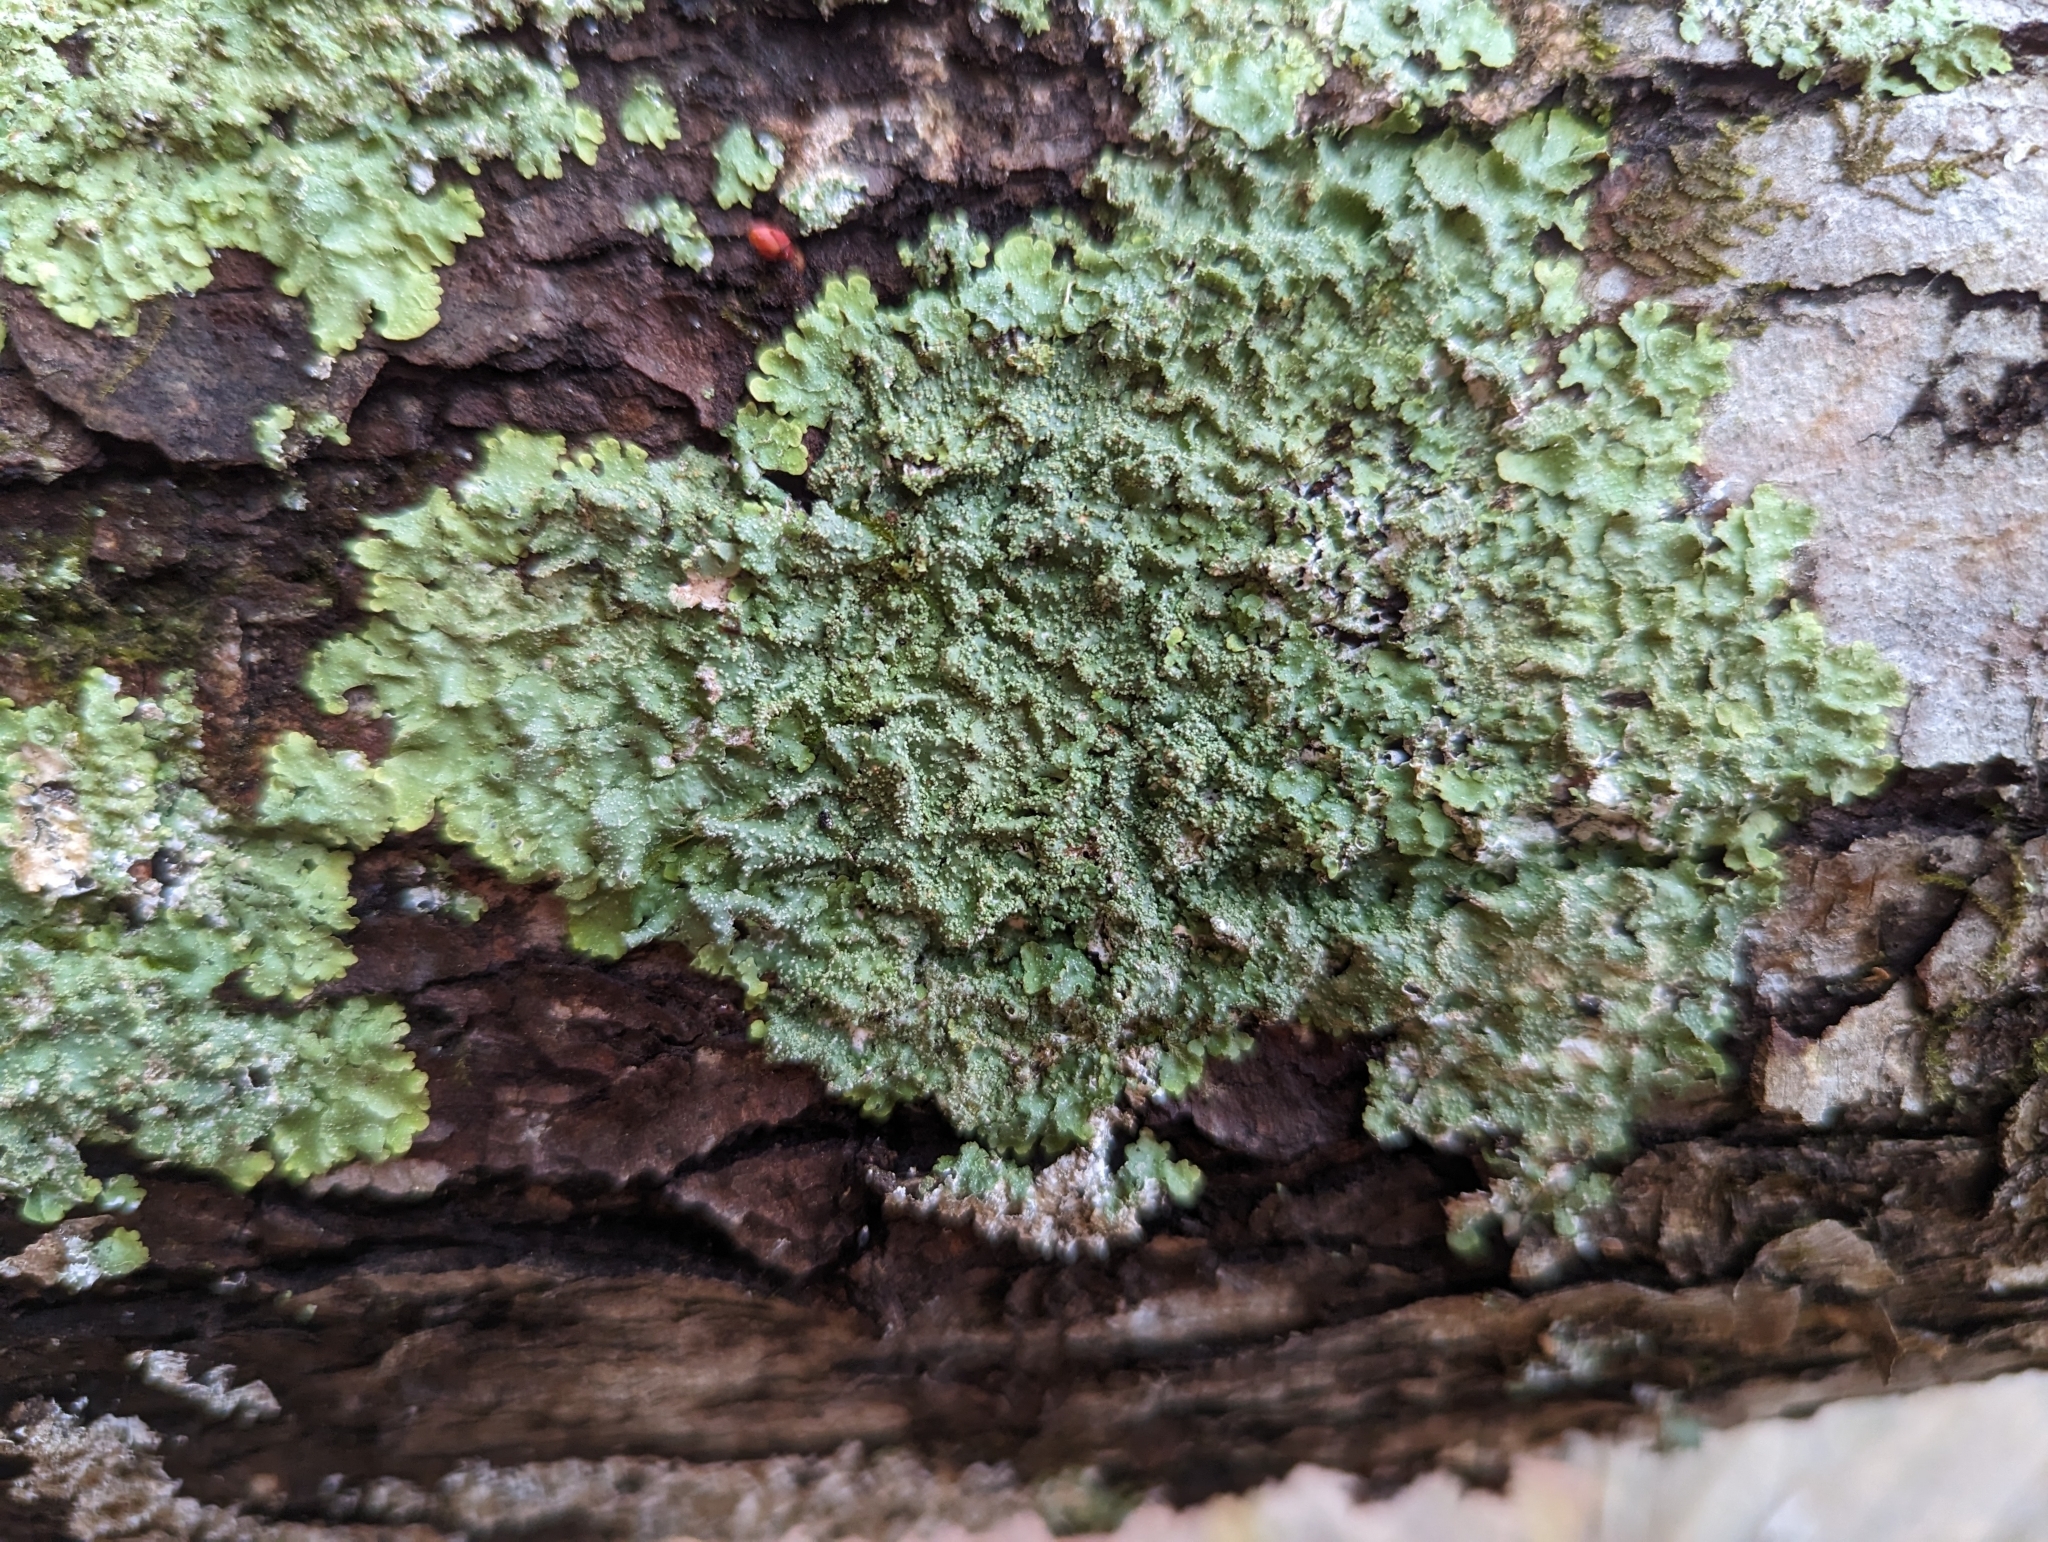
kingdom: Fungi
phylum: Ascomycota
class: Lecanoromycetes
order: Lecanorales
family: Parmeliaceae
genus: Punctelia
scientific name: Punctelia missouriensis
